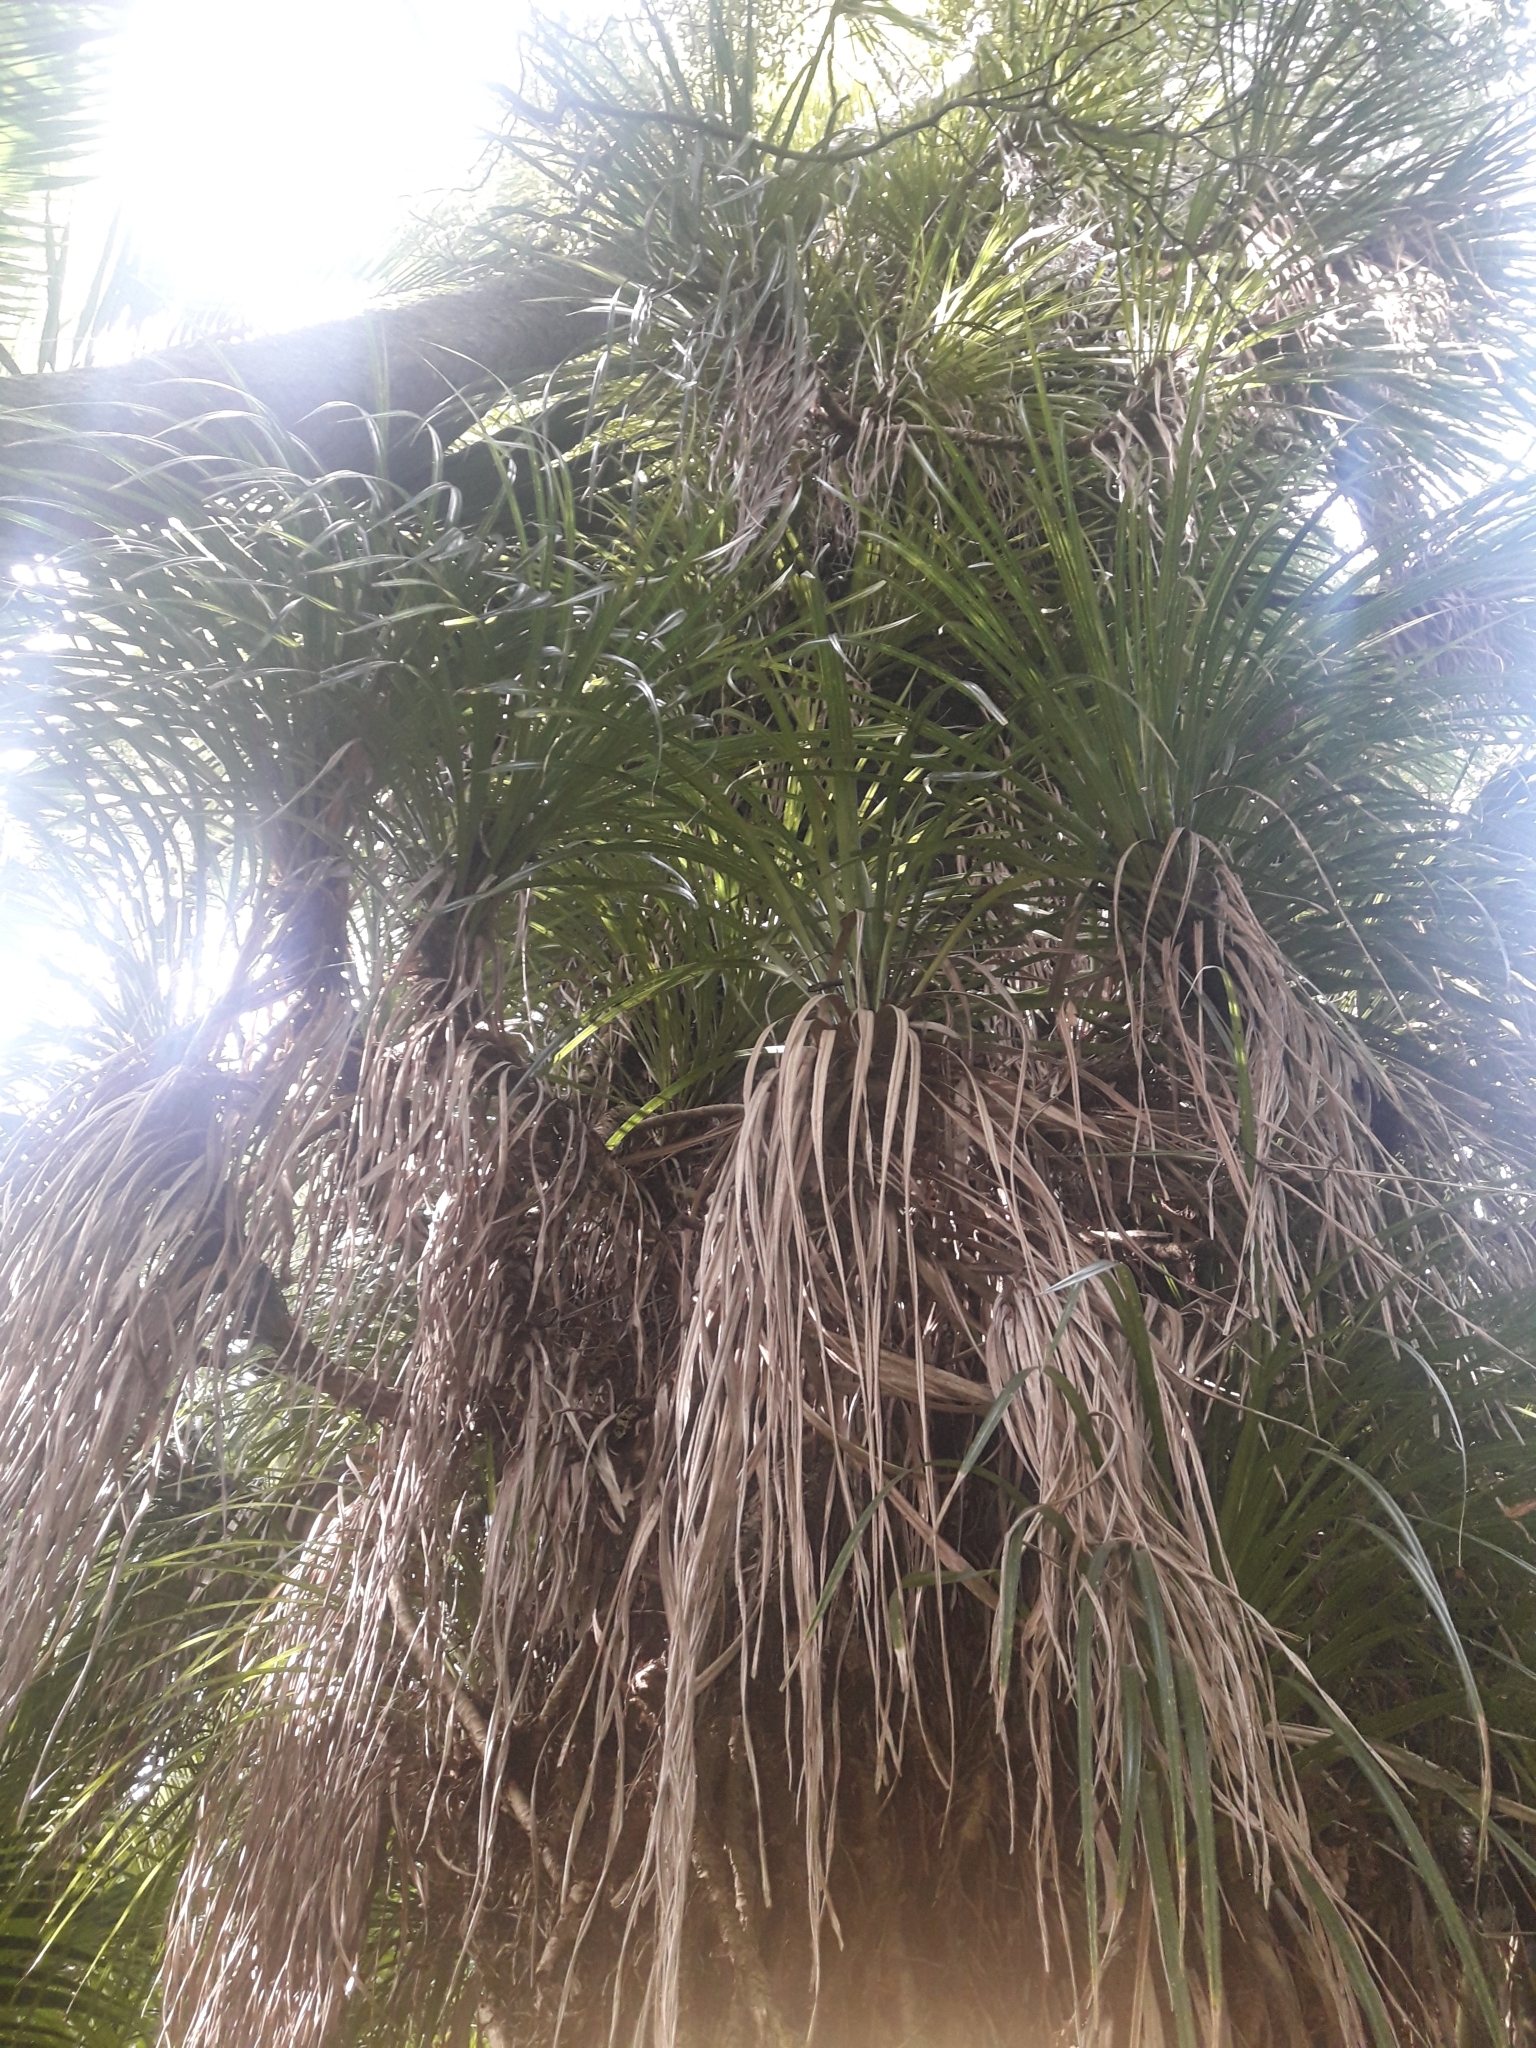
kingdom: Plantae
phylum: Tracheophyta
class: Liliopsida
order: Pandanales
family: Pandanaceae
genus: Freycinetia
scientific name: Freycinetia banksii
